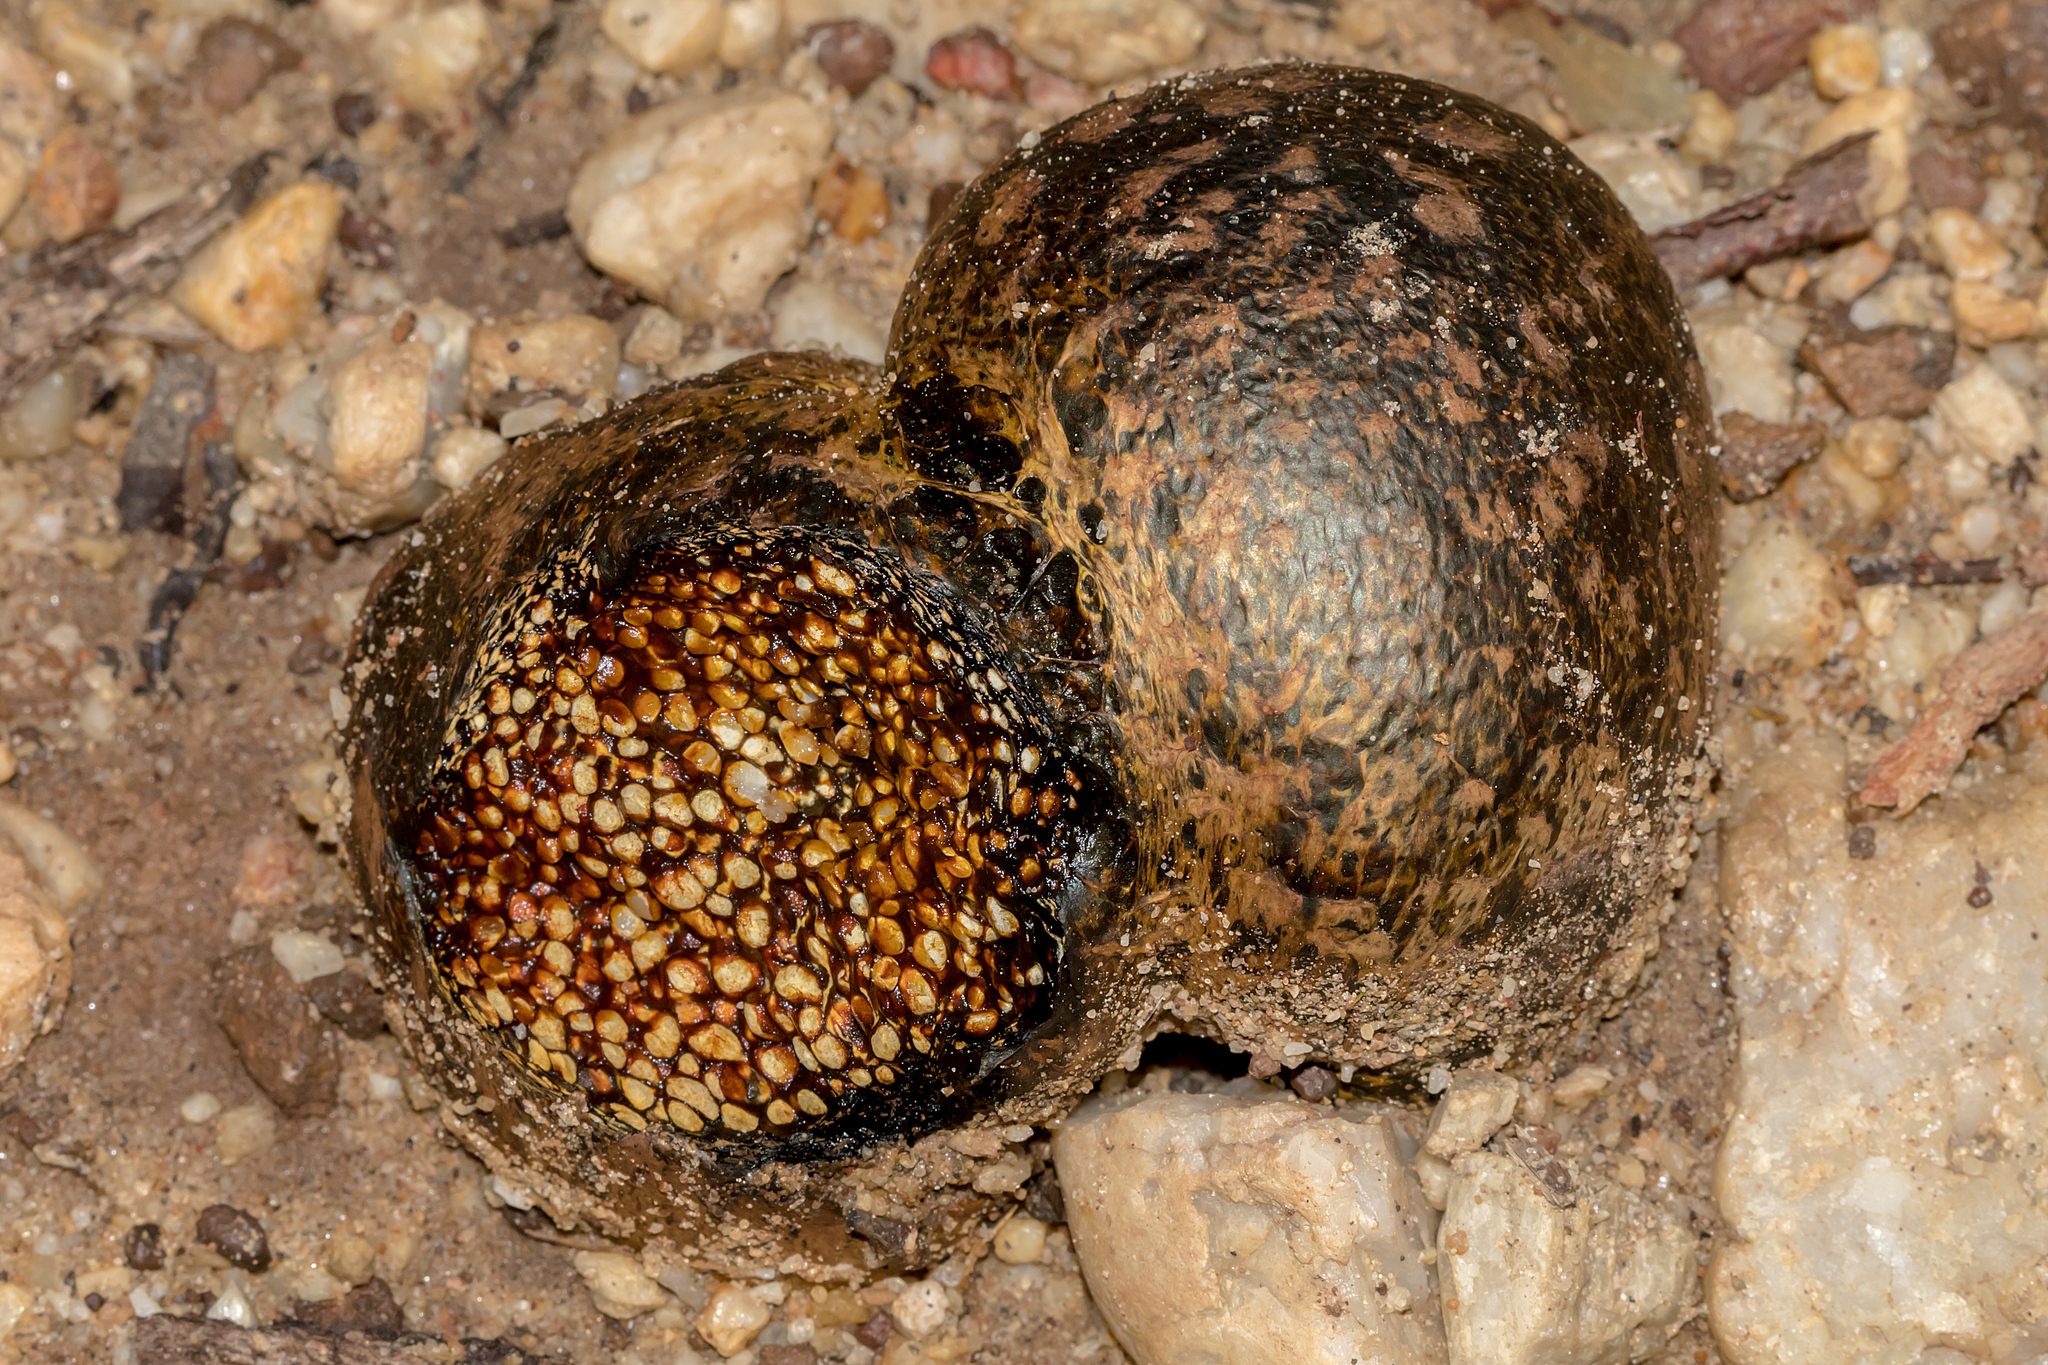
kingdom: Fungi
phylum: Basidiomycota
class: Agaricomycetes
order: Boletales
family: Sclerodermataceae
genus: Pisolithus
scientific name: Pisolithus arhizus
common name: Dyeball
